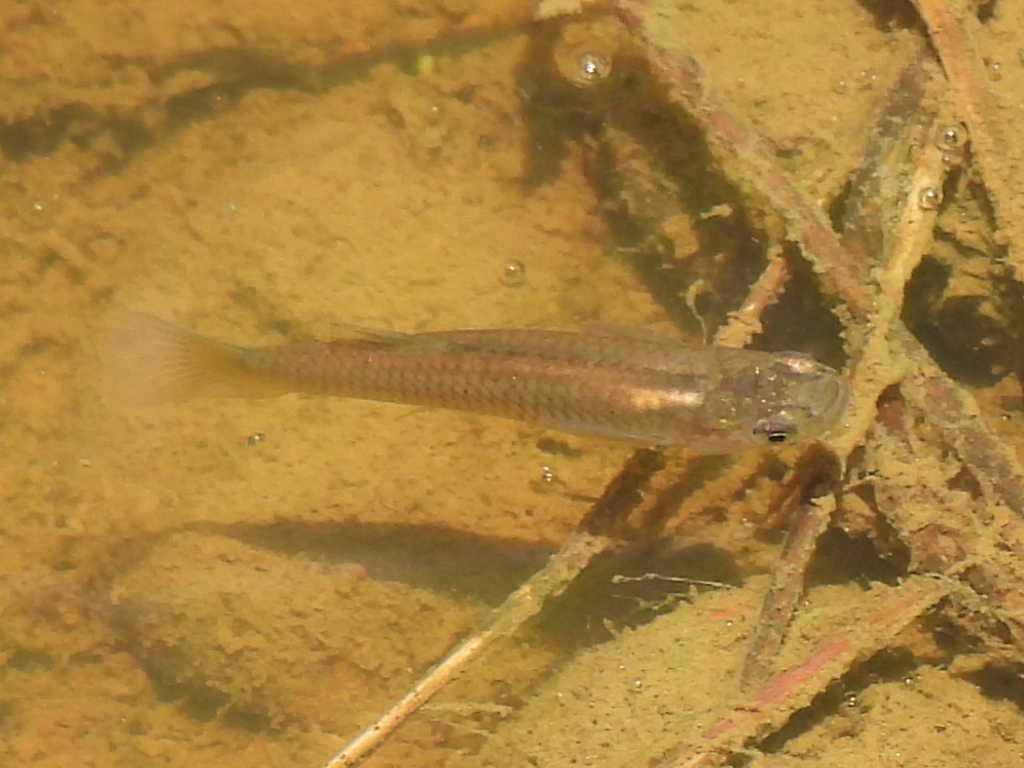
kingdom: Animalia
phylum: Chordata
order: Cyprinodontiformes
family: Poeciliidae
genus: Gambusia
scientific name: Gambusia affinis
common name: Mosquitofish
